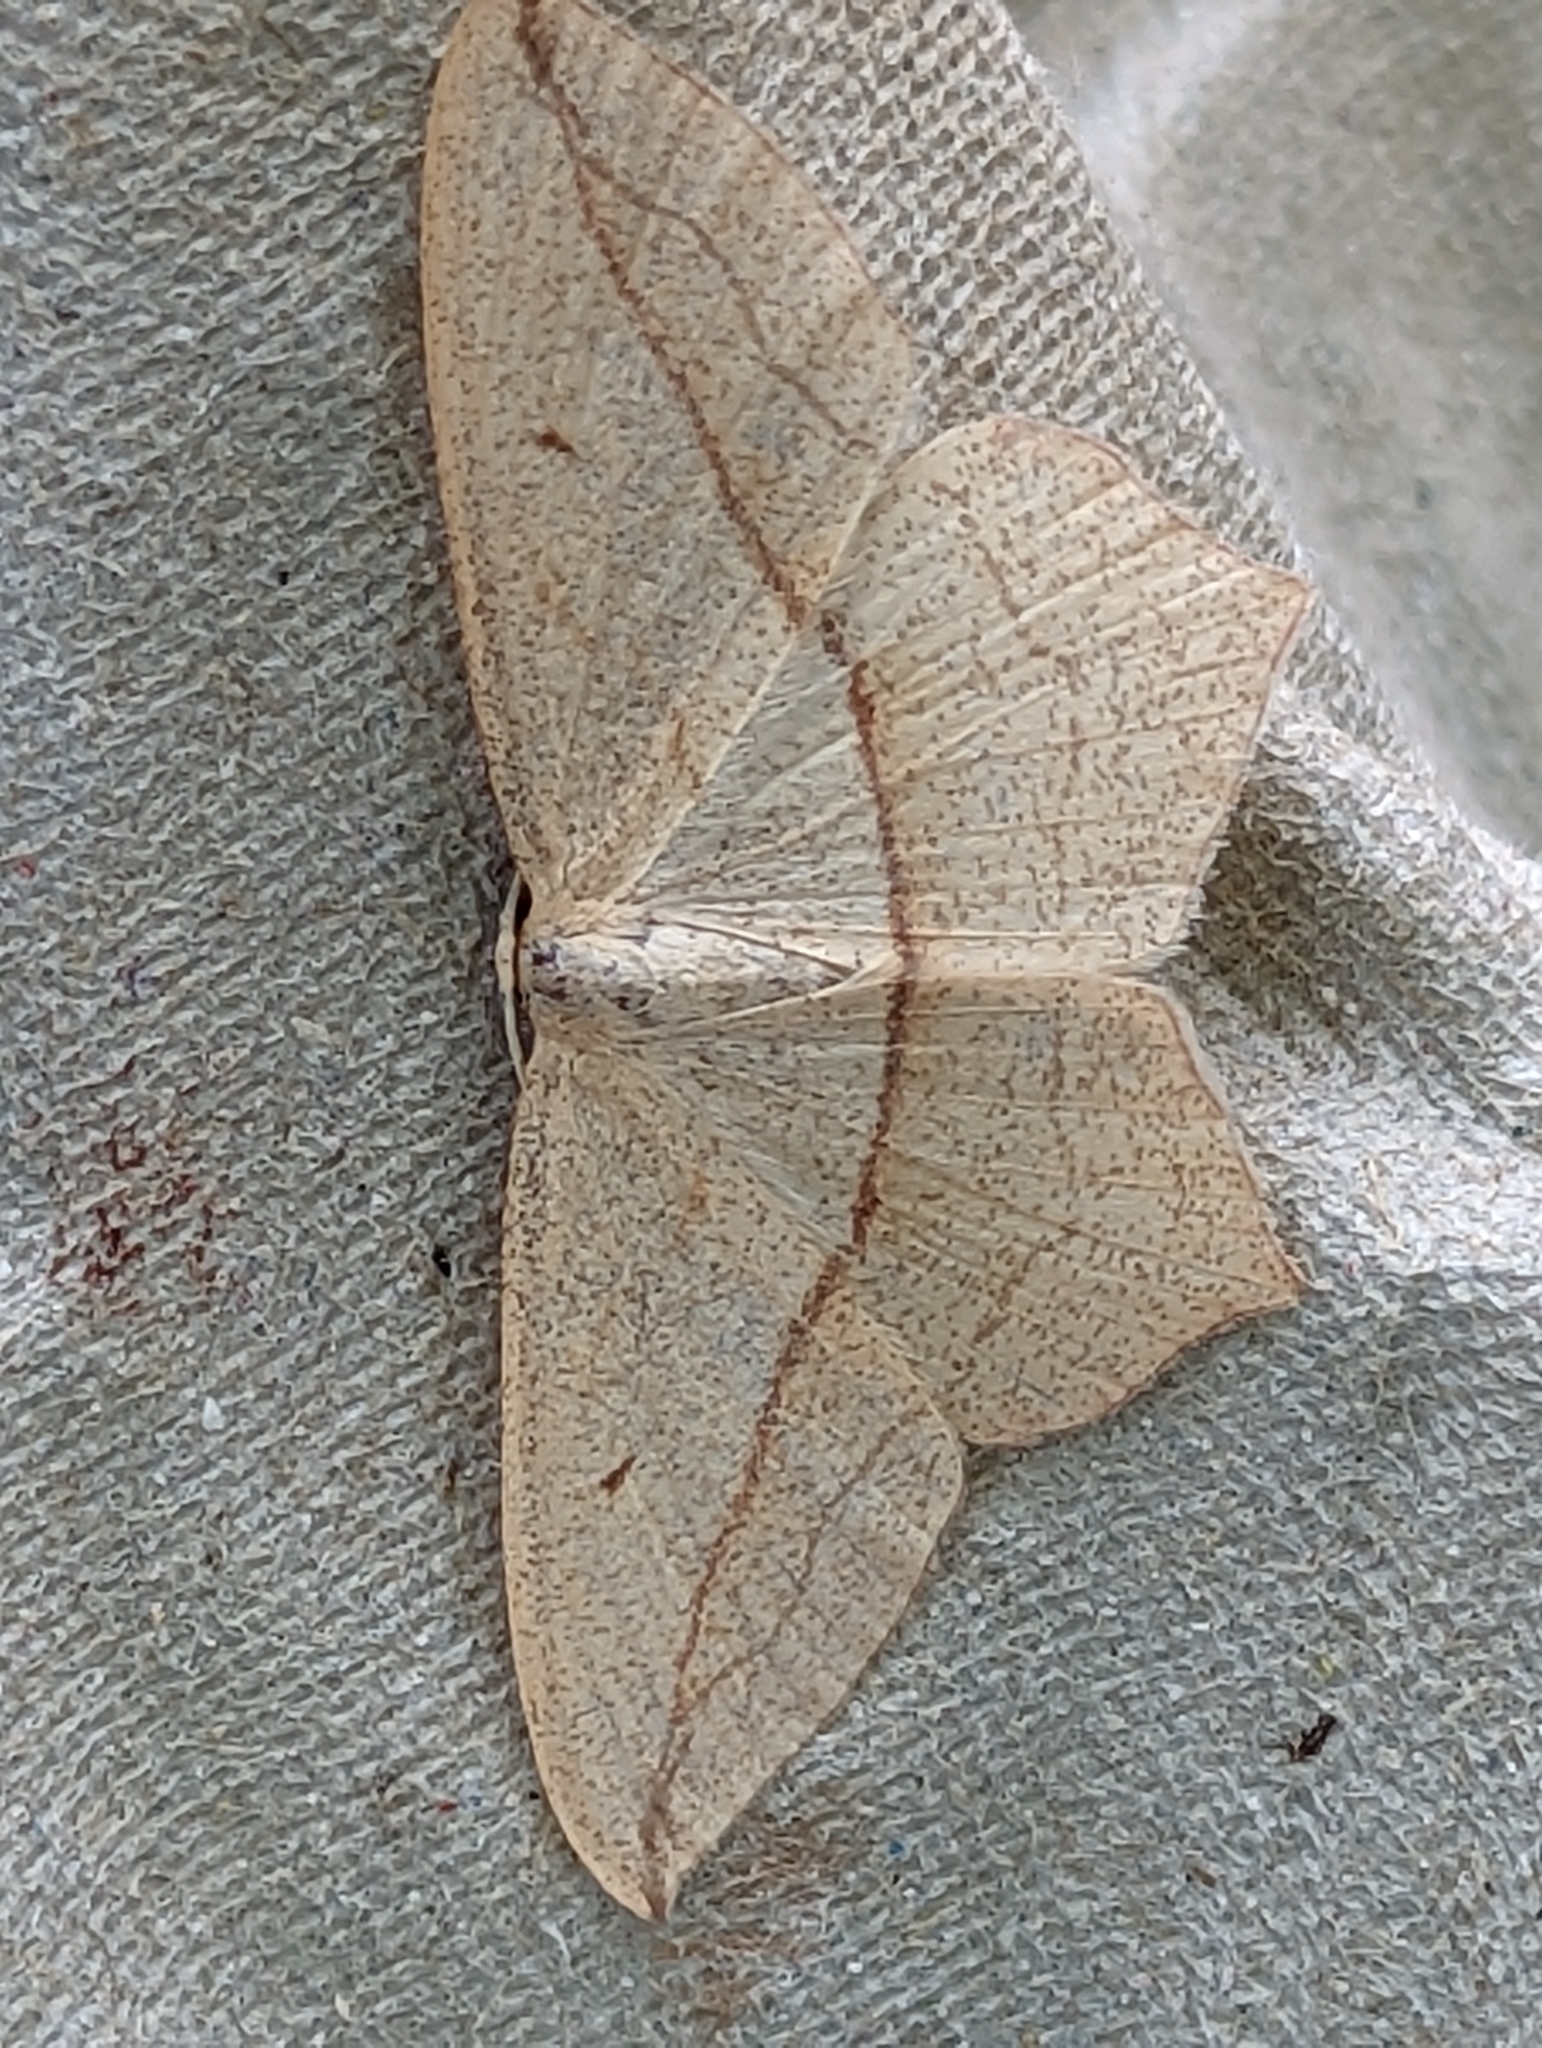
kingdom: Animalia
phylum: Arthropoda
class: Insecta
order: Lepidoptera
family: Geometridae
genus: Timandra
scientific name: Timandra comae
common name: Blood-vein
